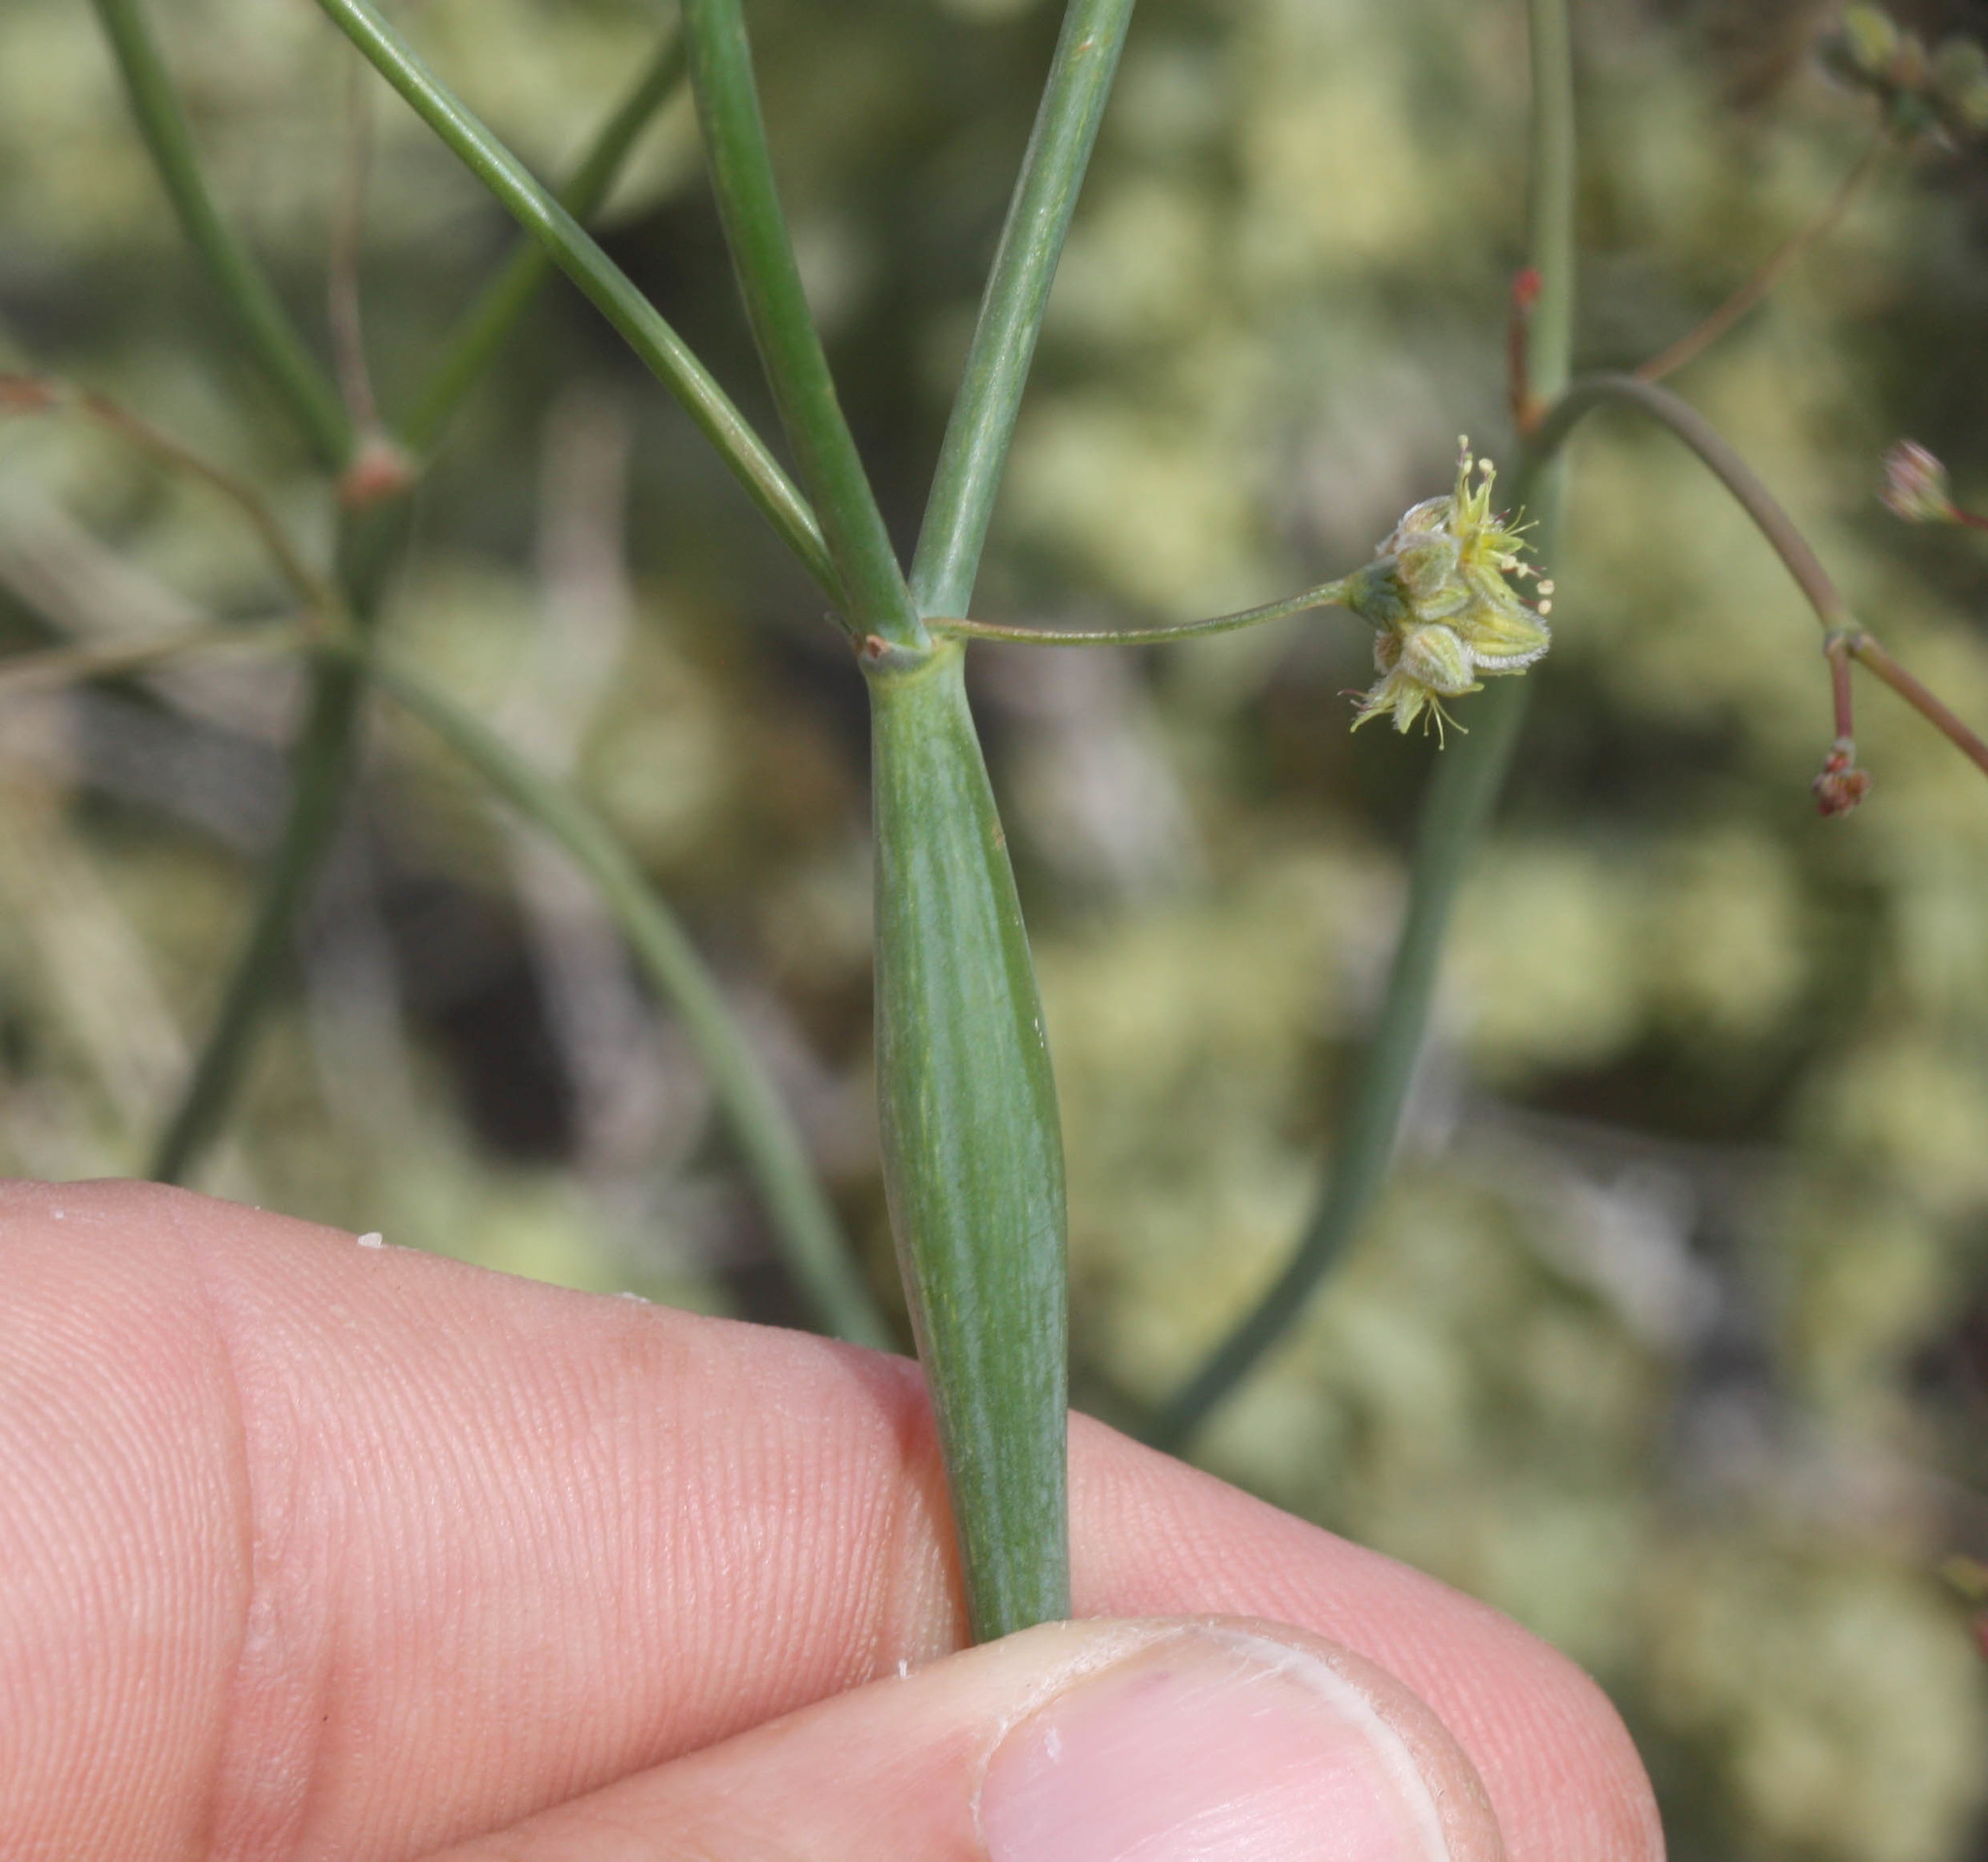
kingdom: Plantae
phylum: Tracheophyta
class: Magnoliopsida
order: Caryophyllales
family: Polygonaceae
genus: Eriogonum
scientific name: Eriogonum inflatum
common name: Desert trumpet
